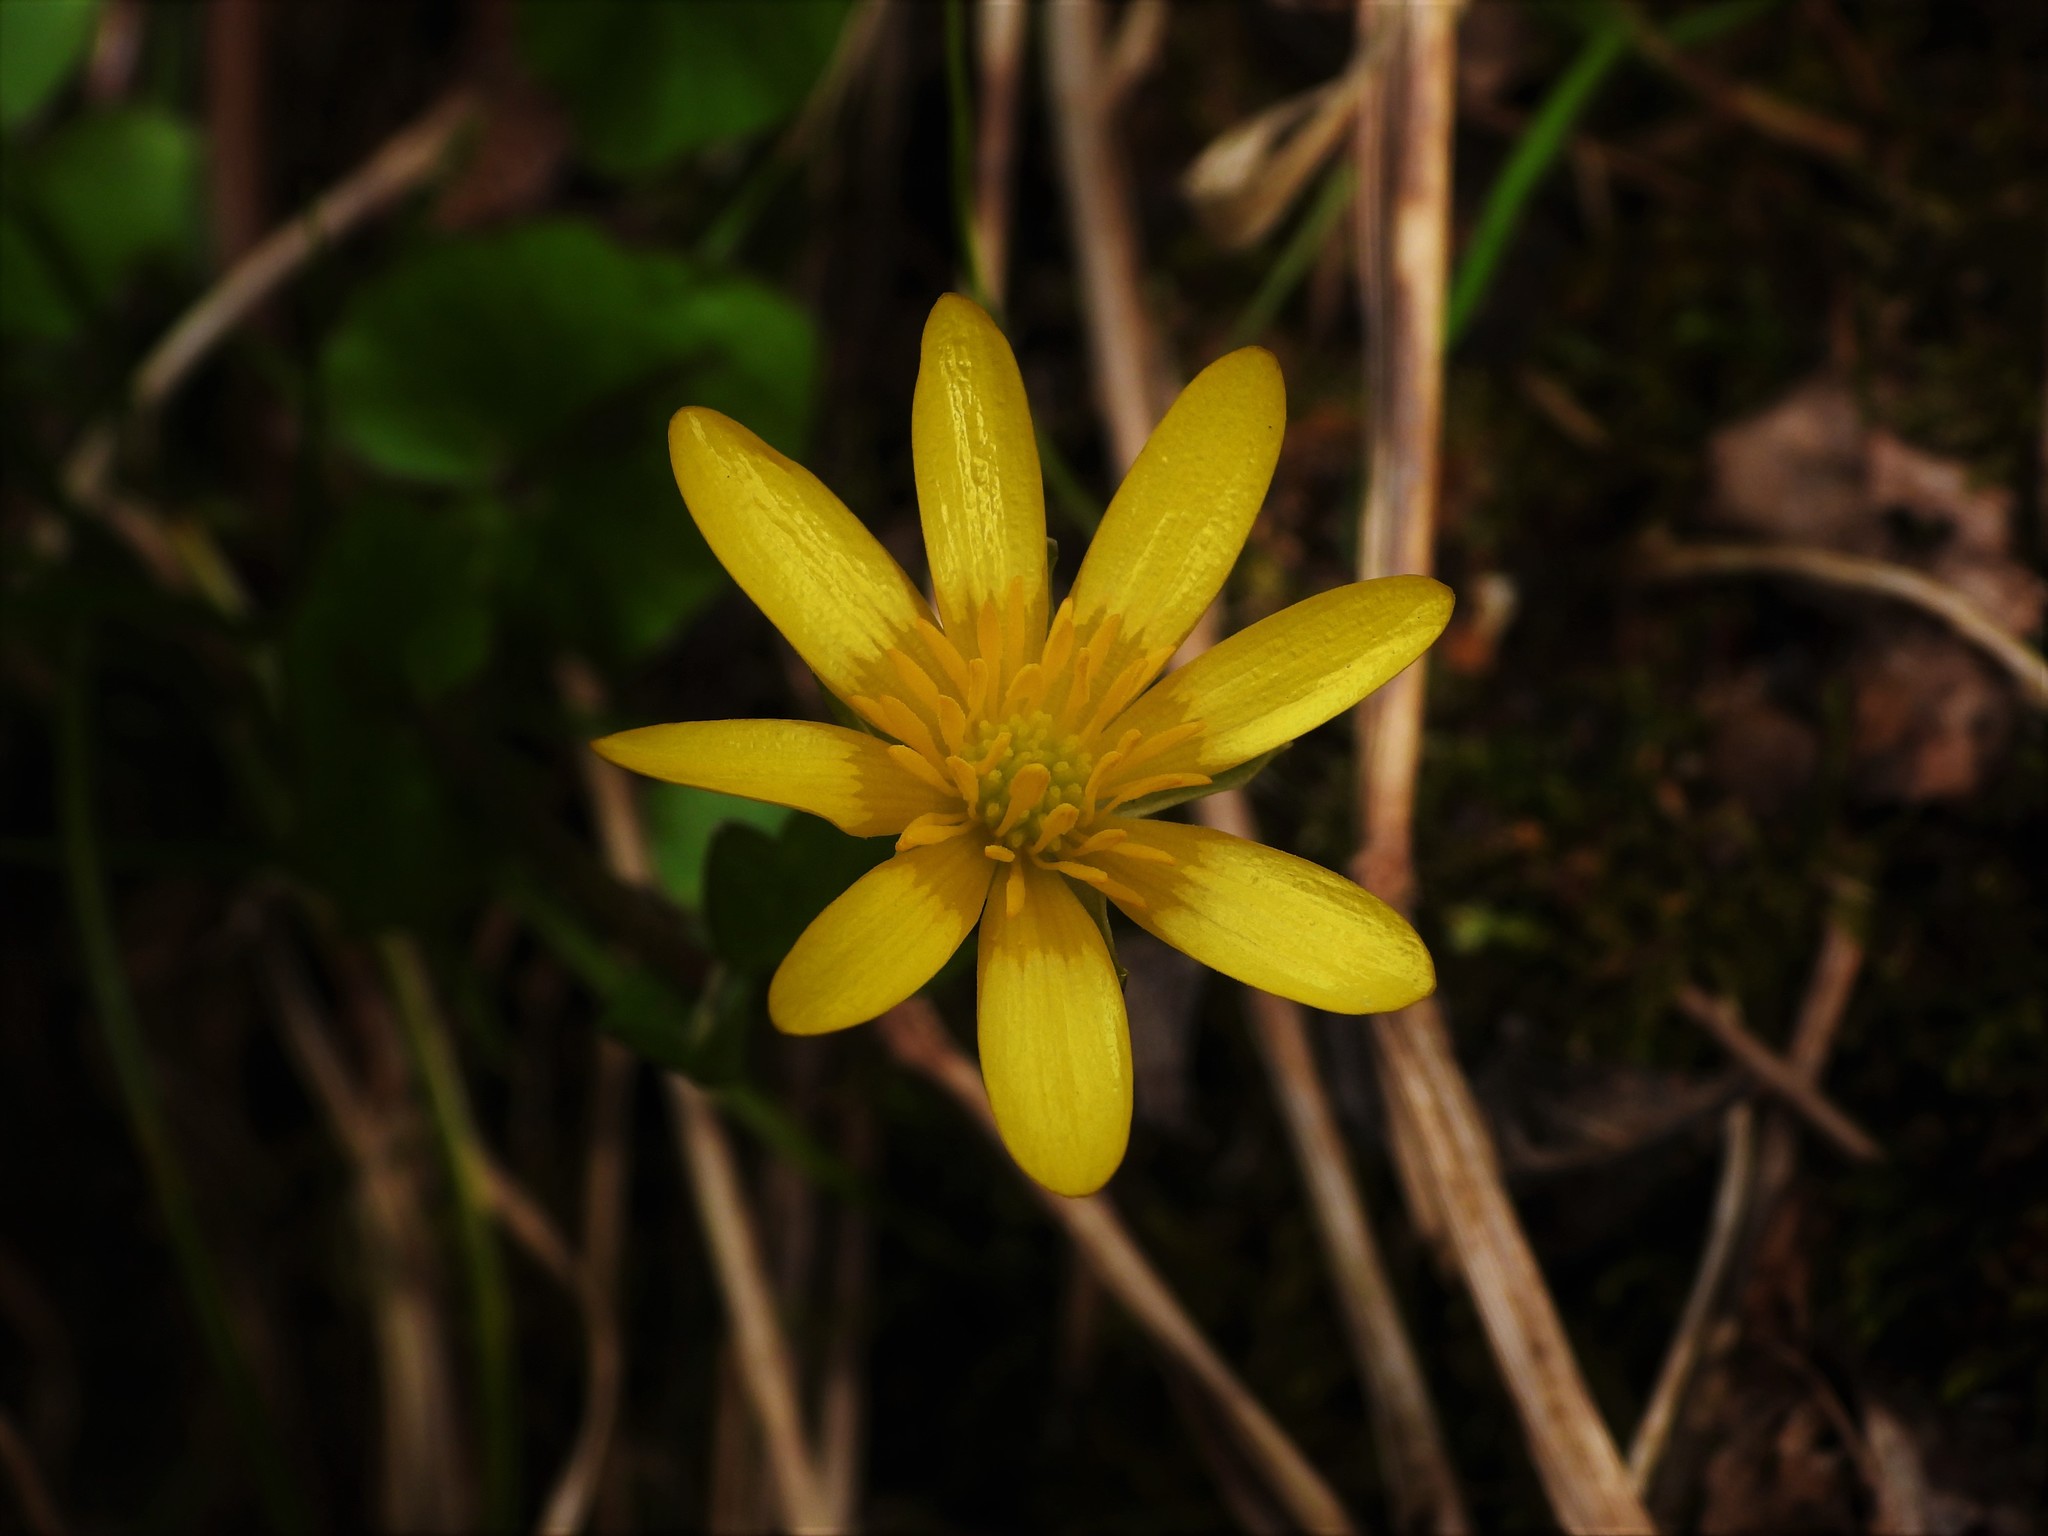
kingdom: Plantae
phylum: Tracheophyta
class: Magnoliopsida
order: Ranunculales
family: Ranunculaceae
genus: Ficaria
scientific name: Ficaria verna
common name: Lesser celandine
